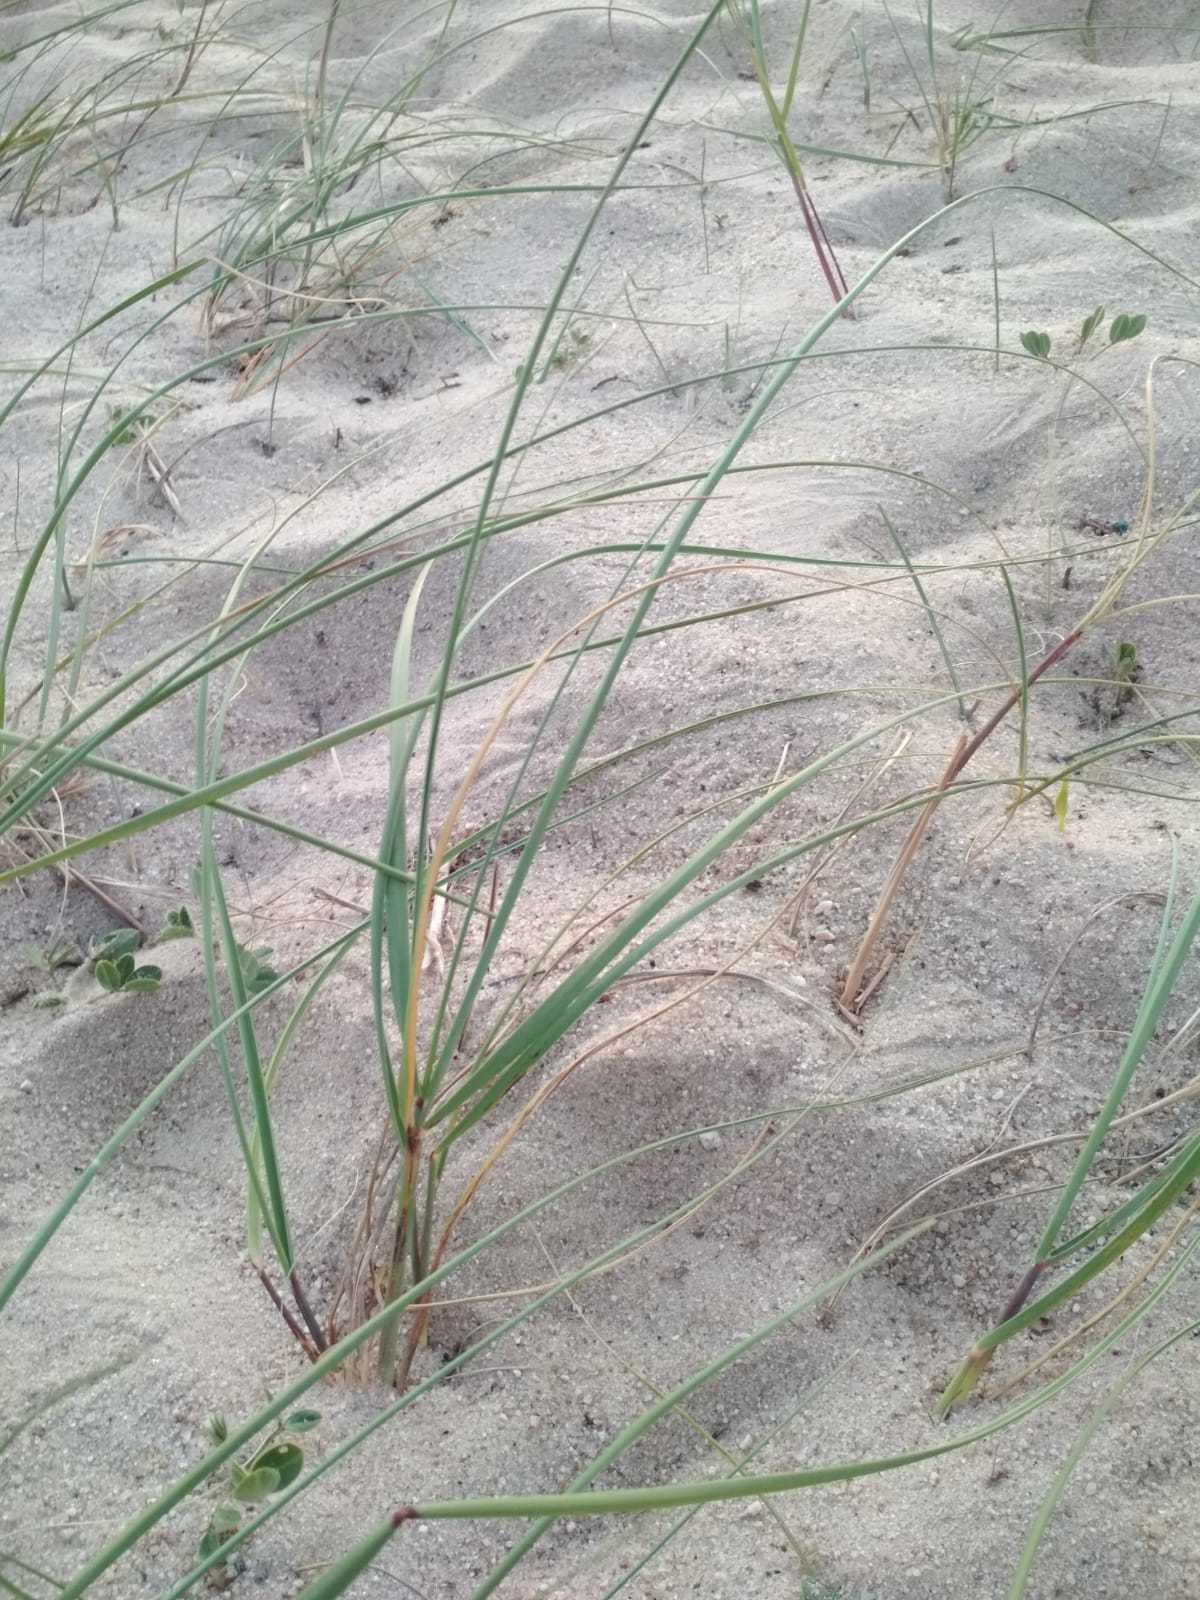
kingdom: Plantae
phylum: Tracheophyta
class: Liliopsida
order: Poales
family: Poaceae
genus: Panicum
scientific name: Panicum racemosum
